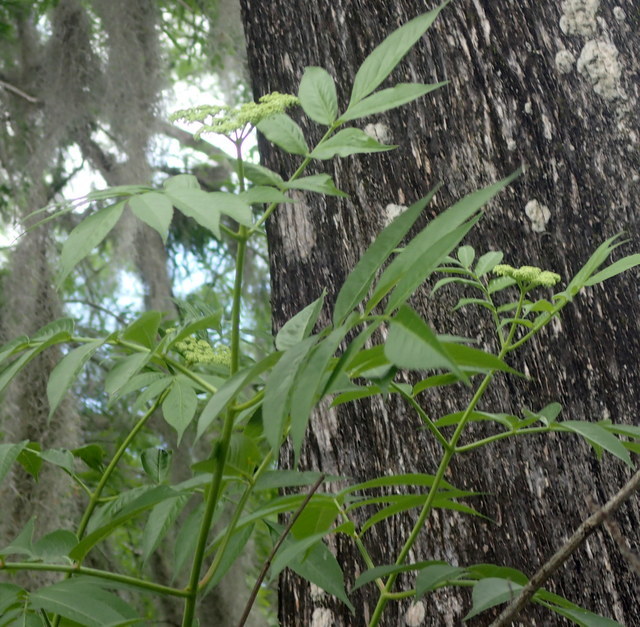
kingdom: Plantae
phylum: Tracheophyta
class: Magnoliopsida
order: Dipsacales
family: Viburnaceae
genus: Sambucus
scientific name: Sambucus canadensis
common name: American elder
